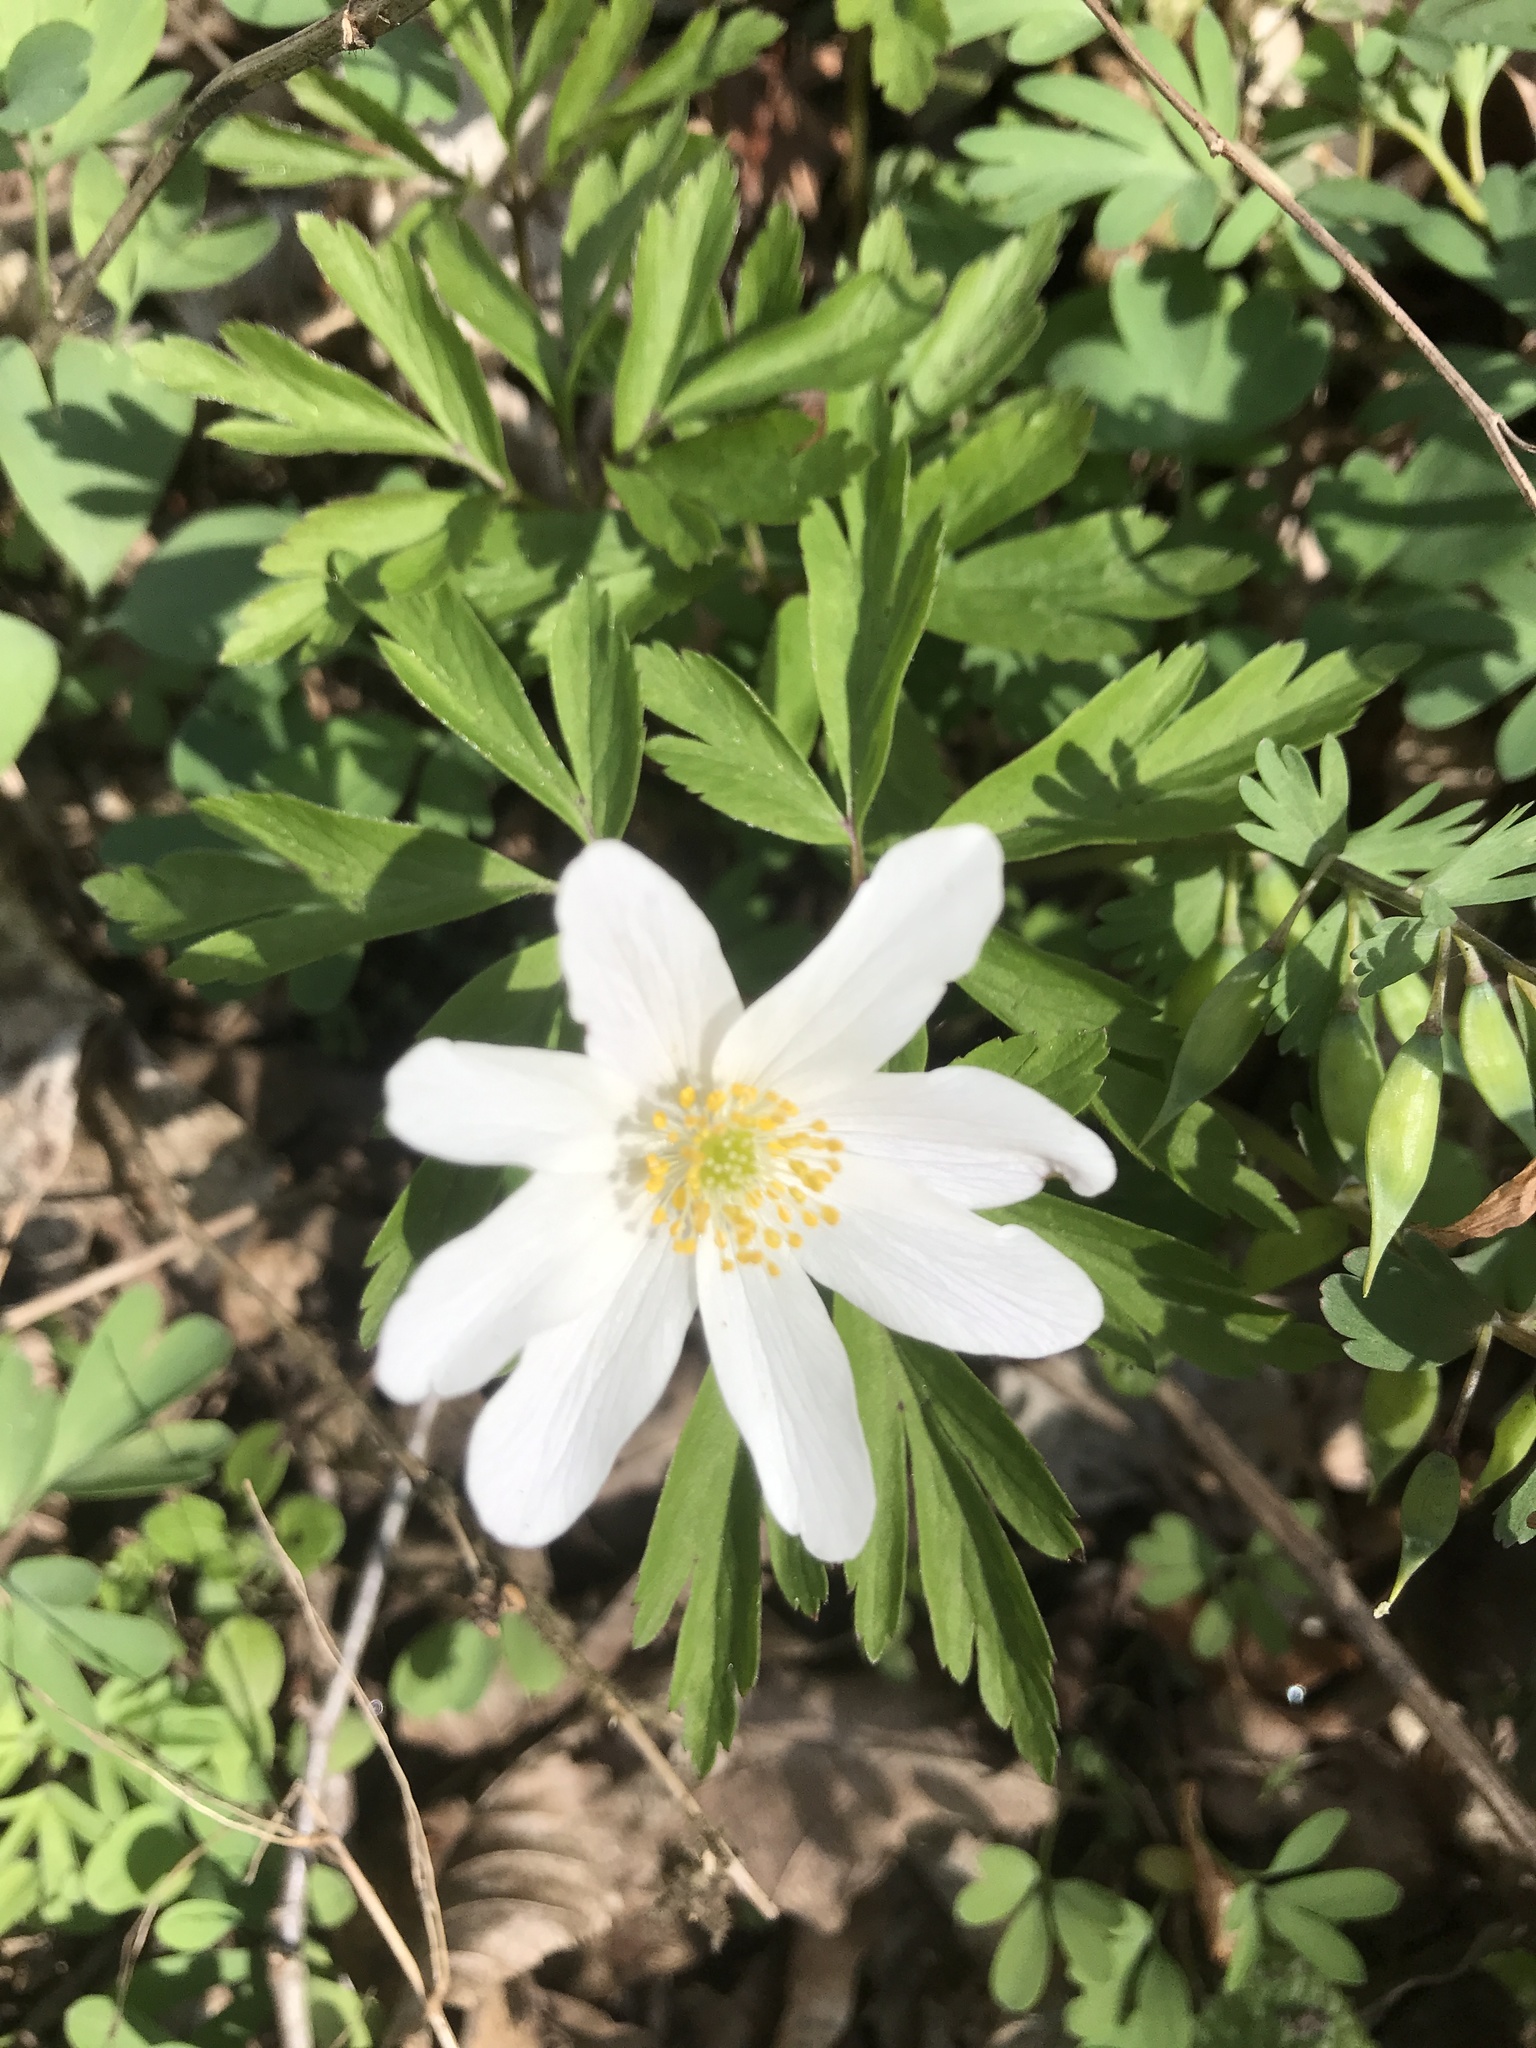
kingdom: Plantae
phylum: Tracheophyta
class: Magnoliopsida
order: Ranunculales
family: Ranunculaceae
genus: Anemone
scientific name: Anemone nemorosa
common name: Wood anemone
